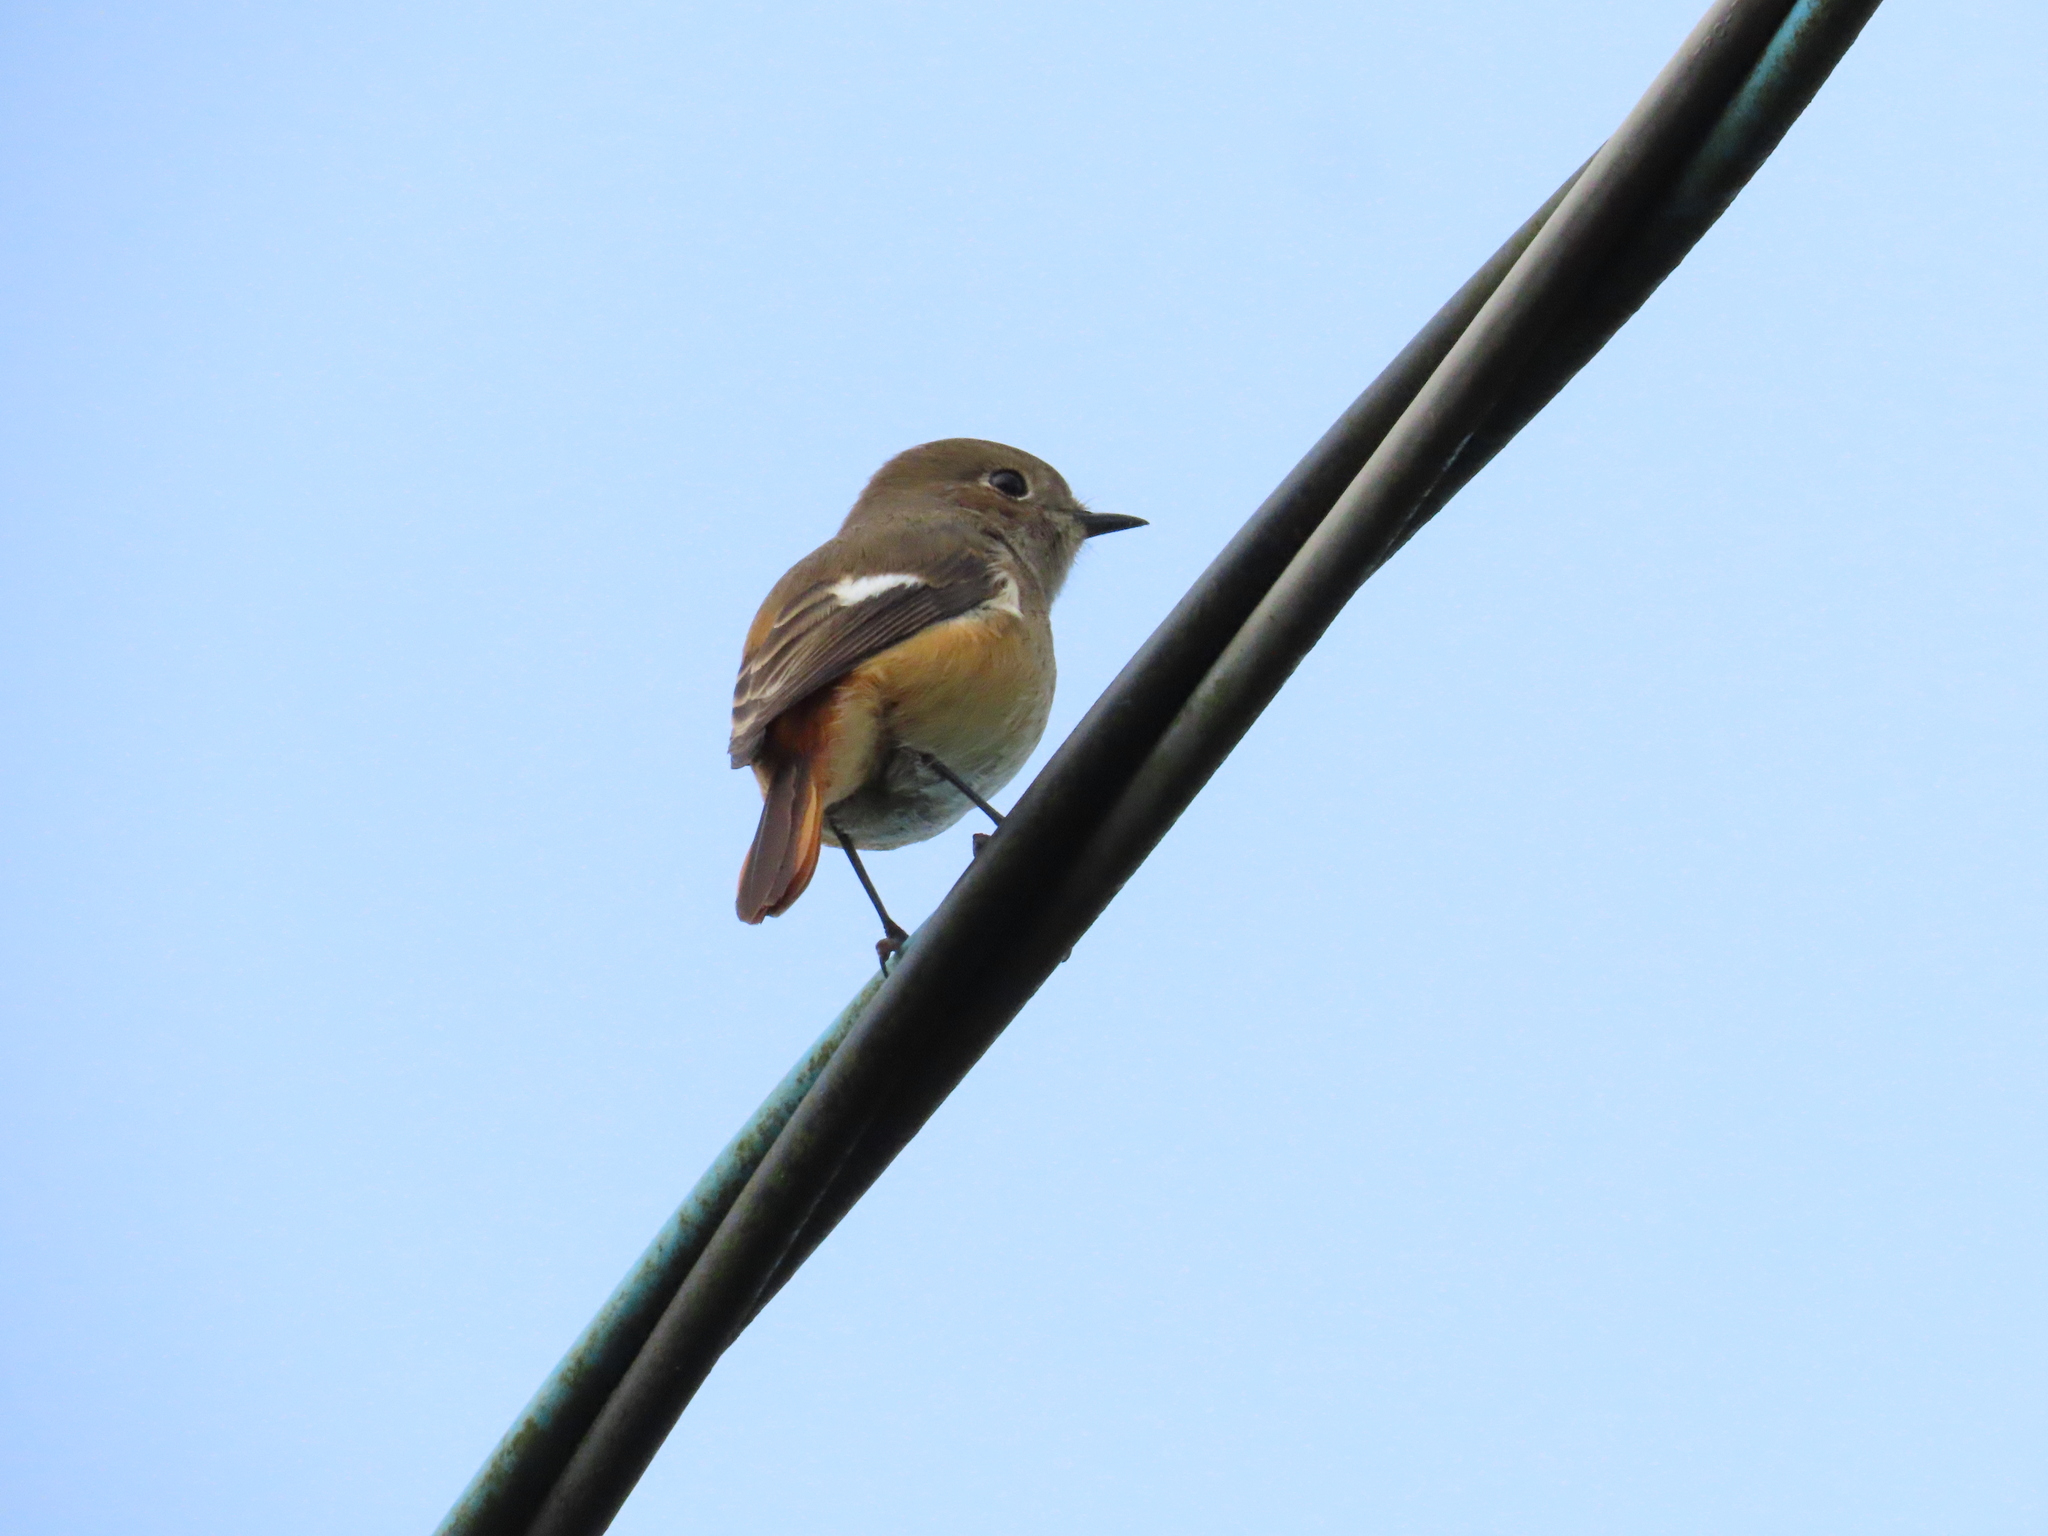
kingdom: Animalia
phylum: Chordata
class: Aves
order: Passeriformes
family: Muscicapidae
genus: Phoenicurus
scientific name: Phoenicurus auroreus
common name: Daurian redstart
